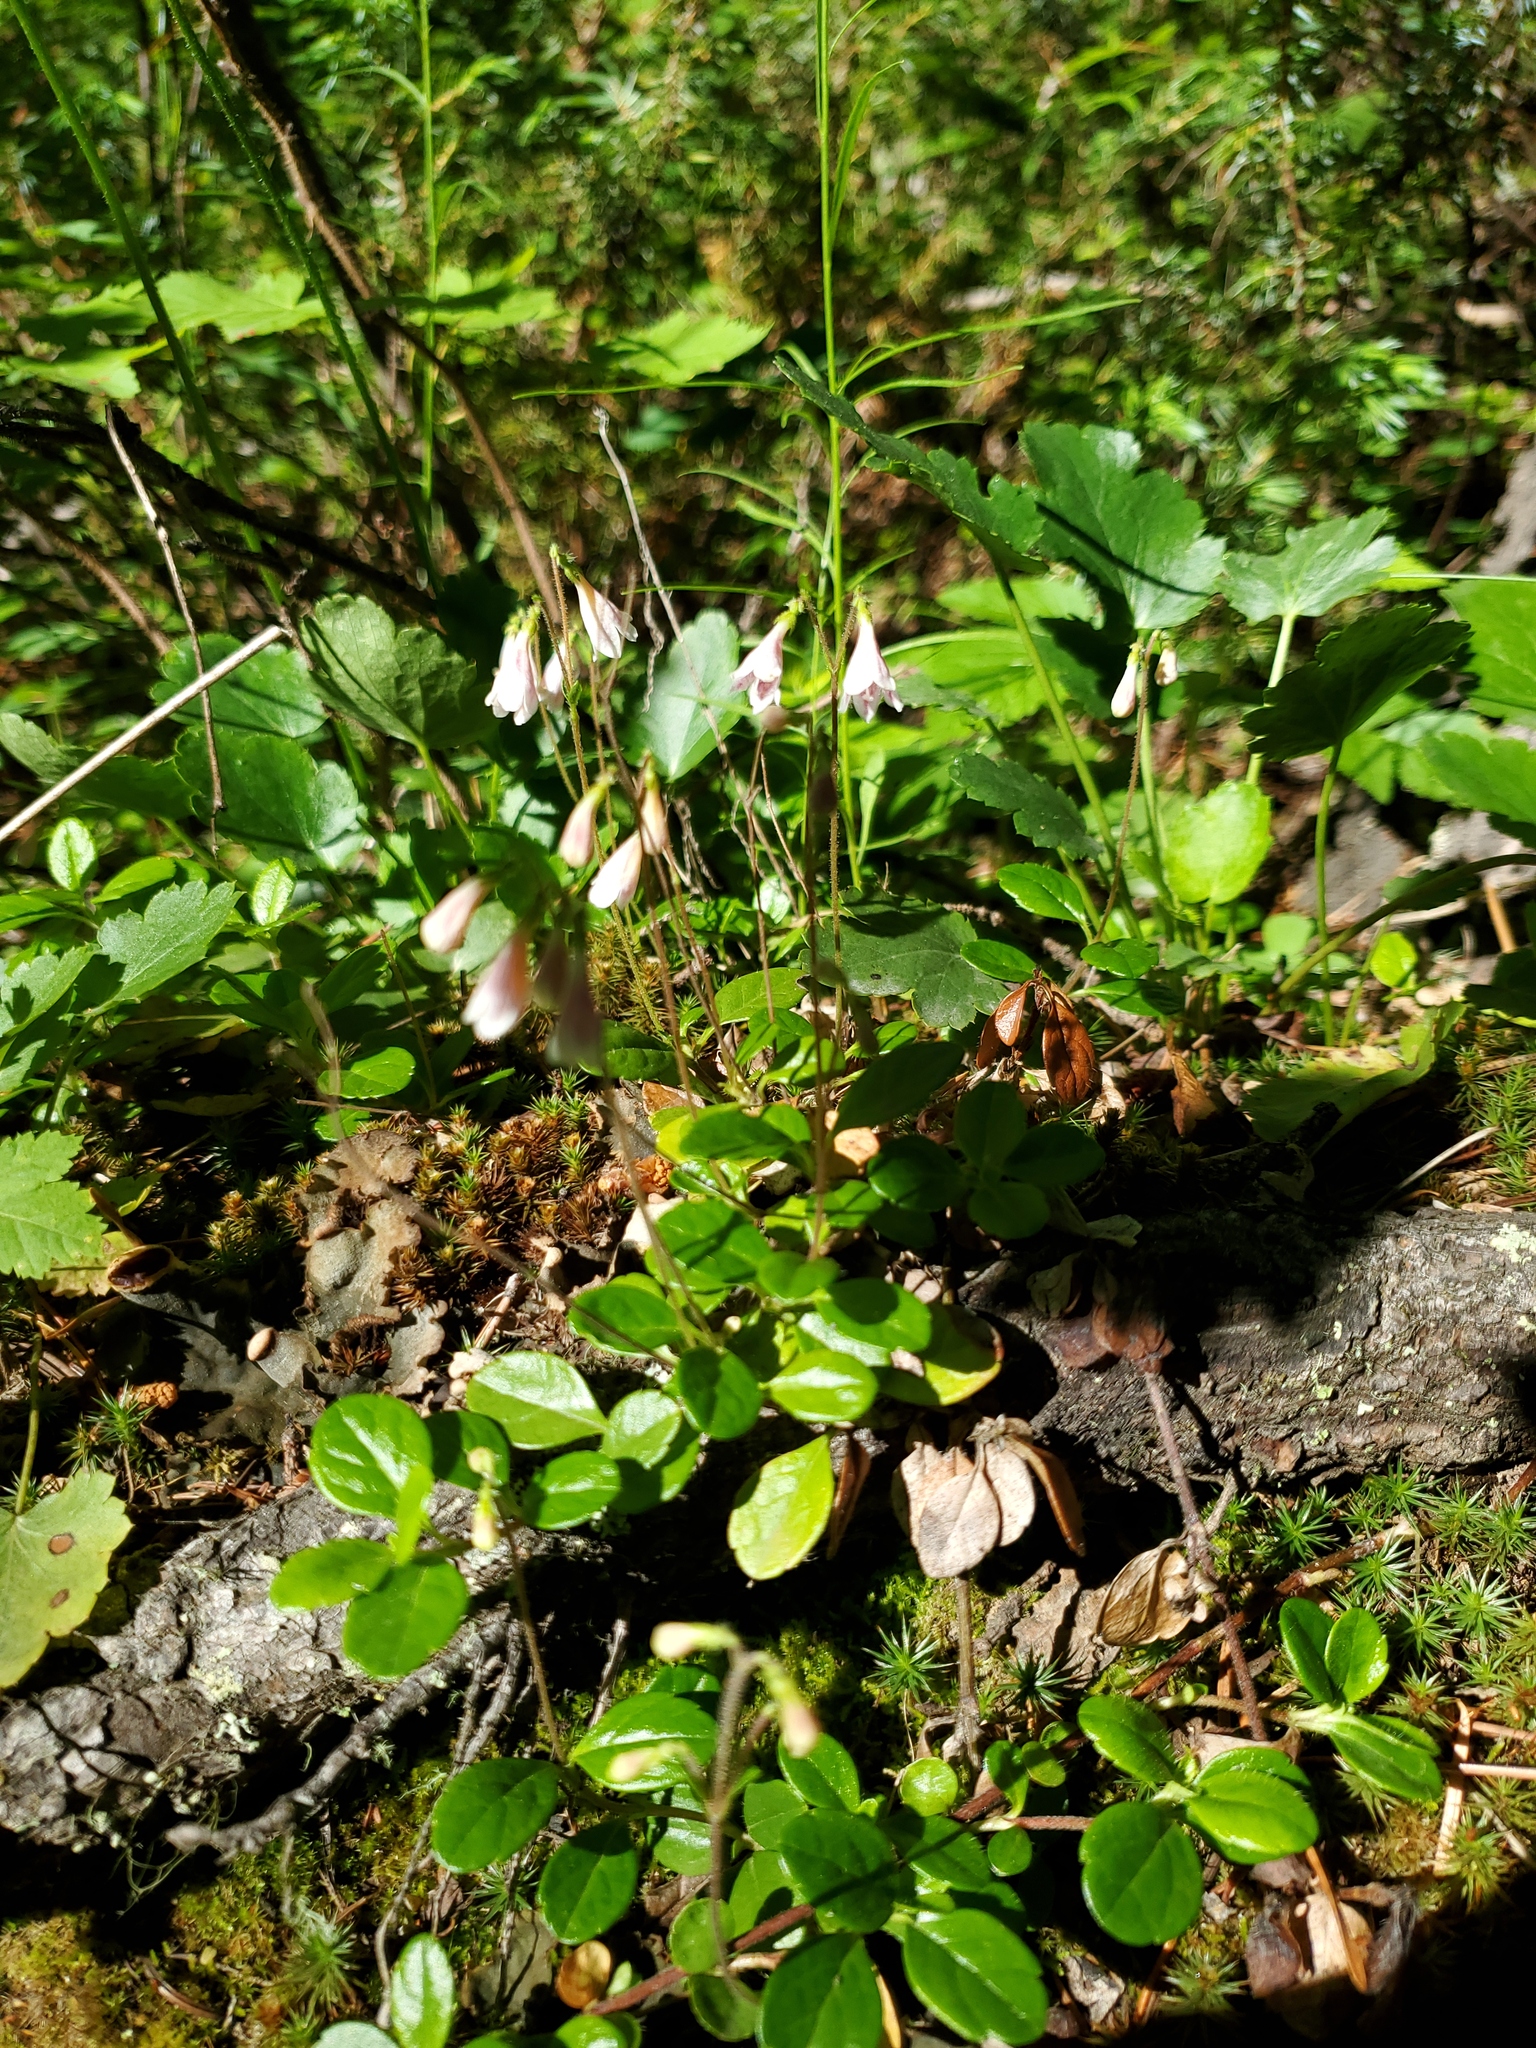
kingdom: Plantae
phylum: Tracheophyta
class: Magnoliopsida
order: Dipsacales
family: Caprifoliaceae
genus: Linnaea
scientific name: Linnaea borealis
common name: Twinflower
